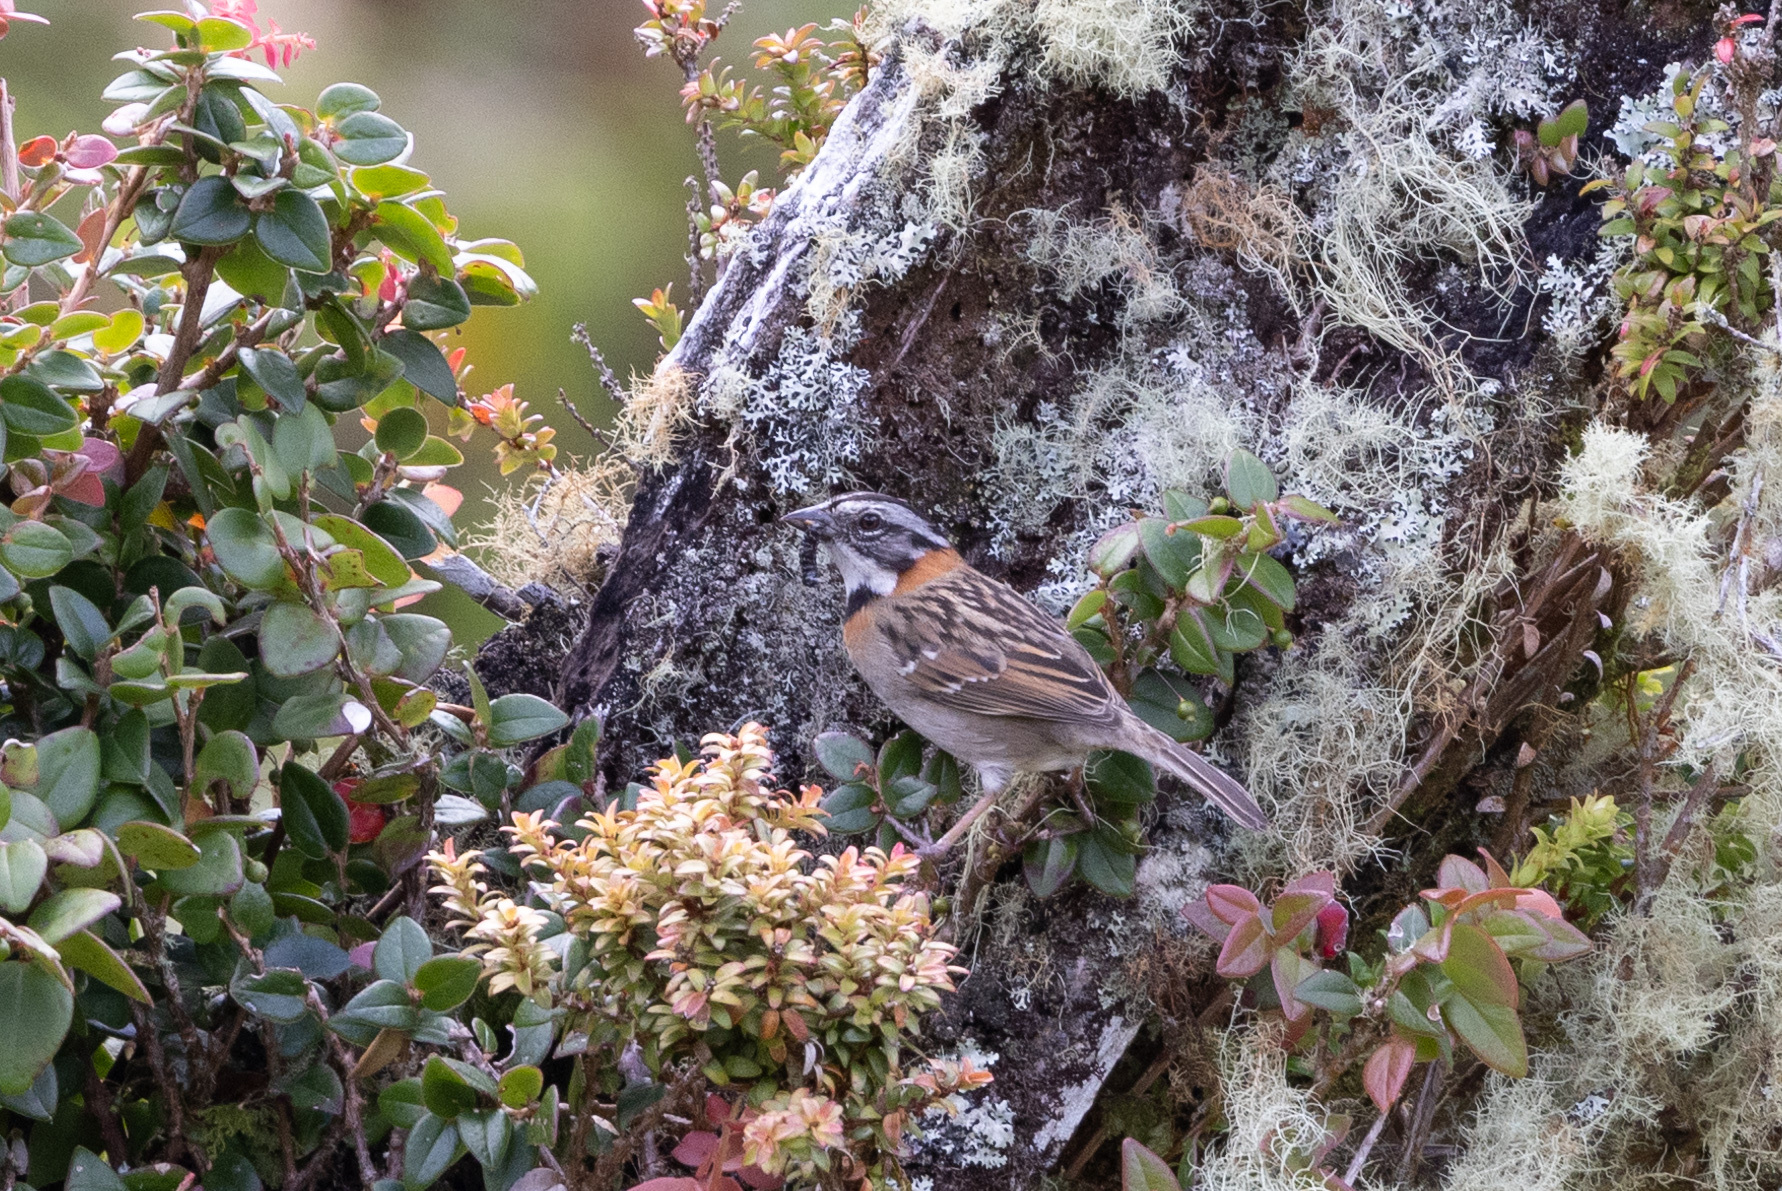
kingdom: Animalia
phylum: Chordata
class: Aves
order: Passeriformes
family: Passerellidae
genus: Zonotrichia
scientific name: Zonotrichia capensis
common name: Rufous-collared sparrow
